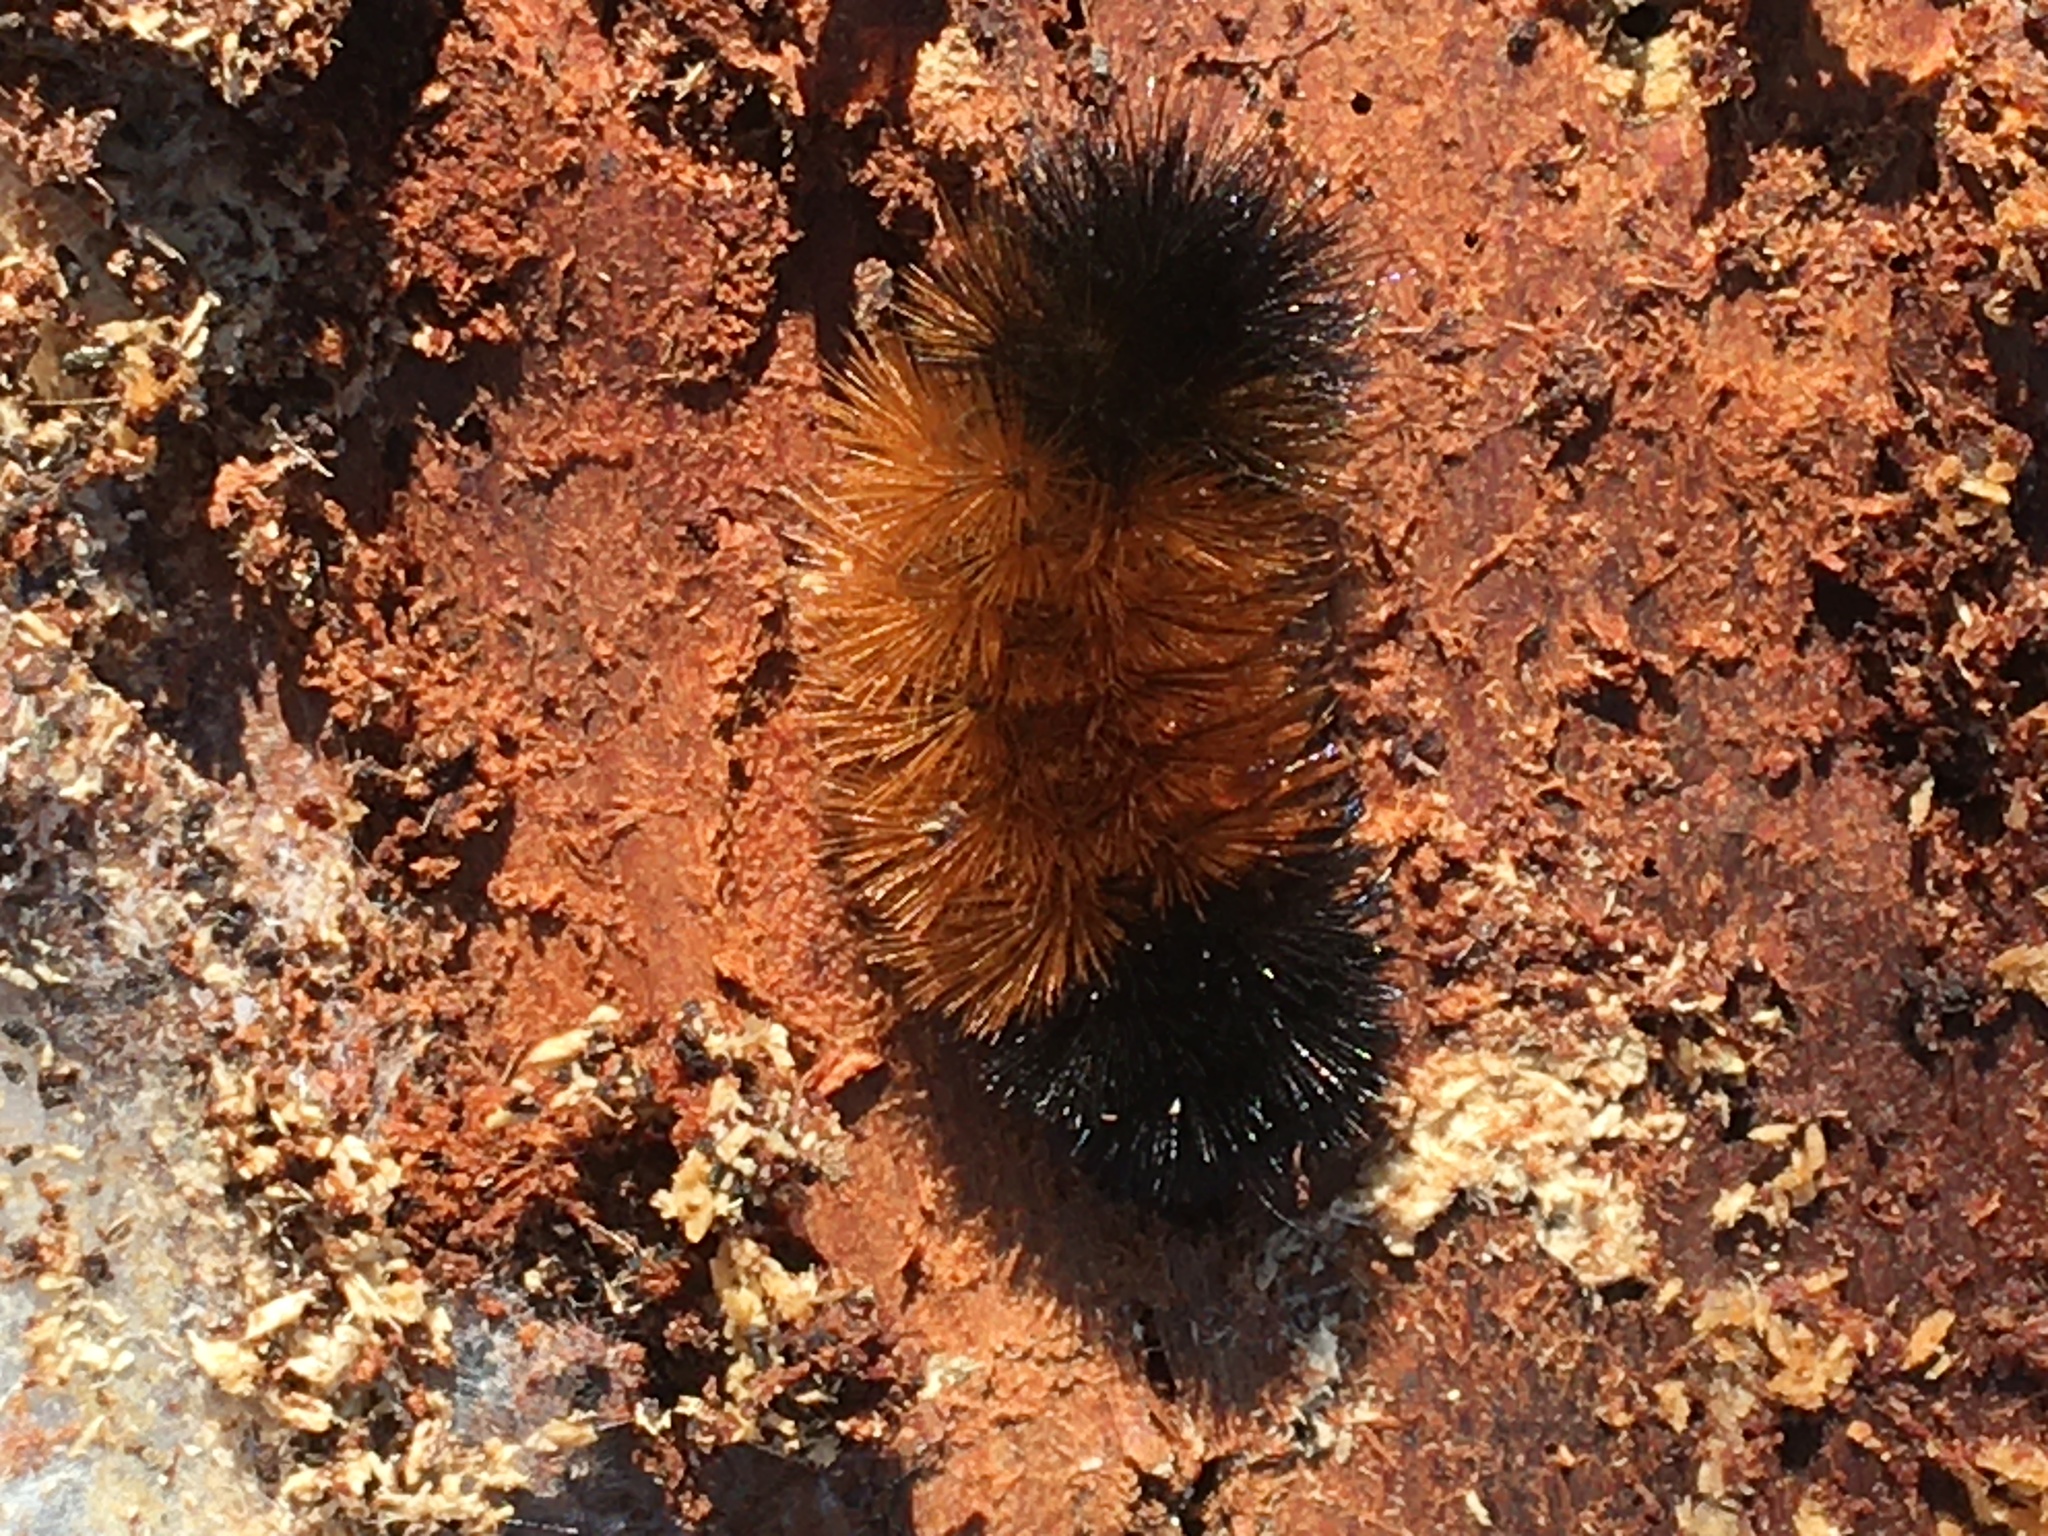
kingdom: Animalia
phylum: Arthropoda
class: Insecta
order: Lepidoptera
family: Erebidae
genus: Pyrrharctia
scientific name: Pyrrharctia isabella
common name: Isabella tiger moth
